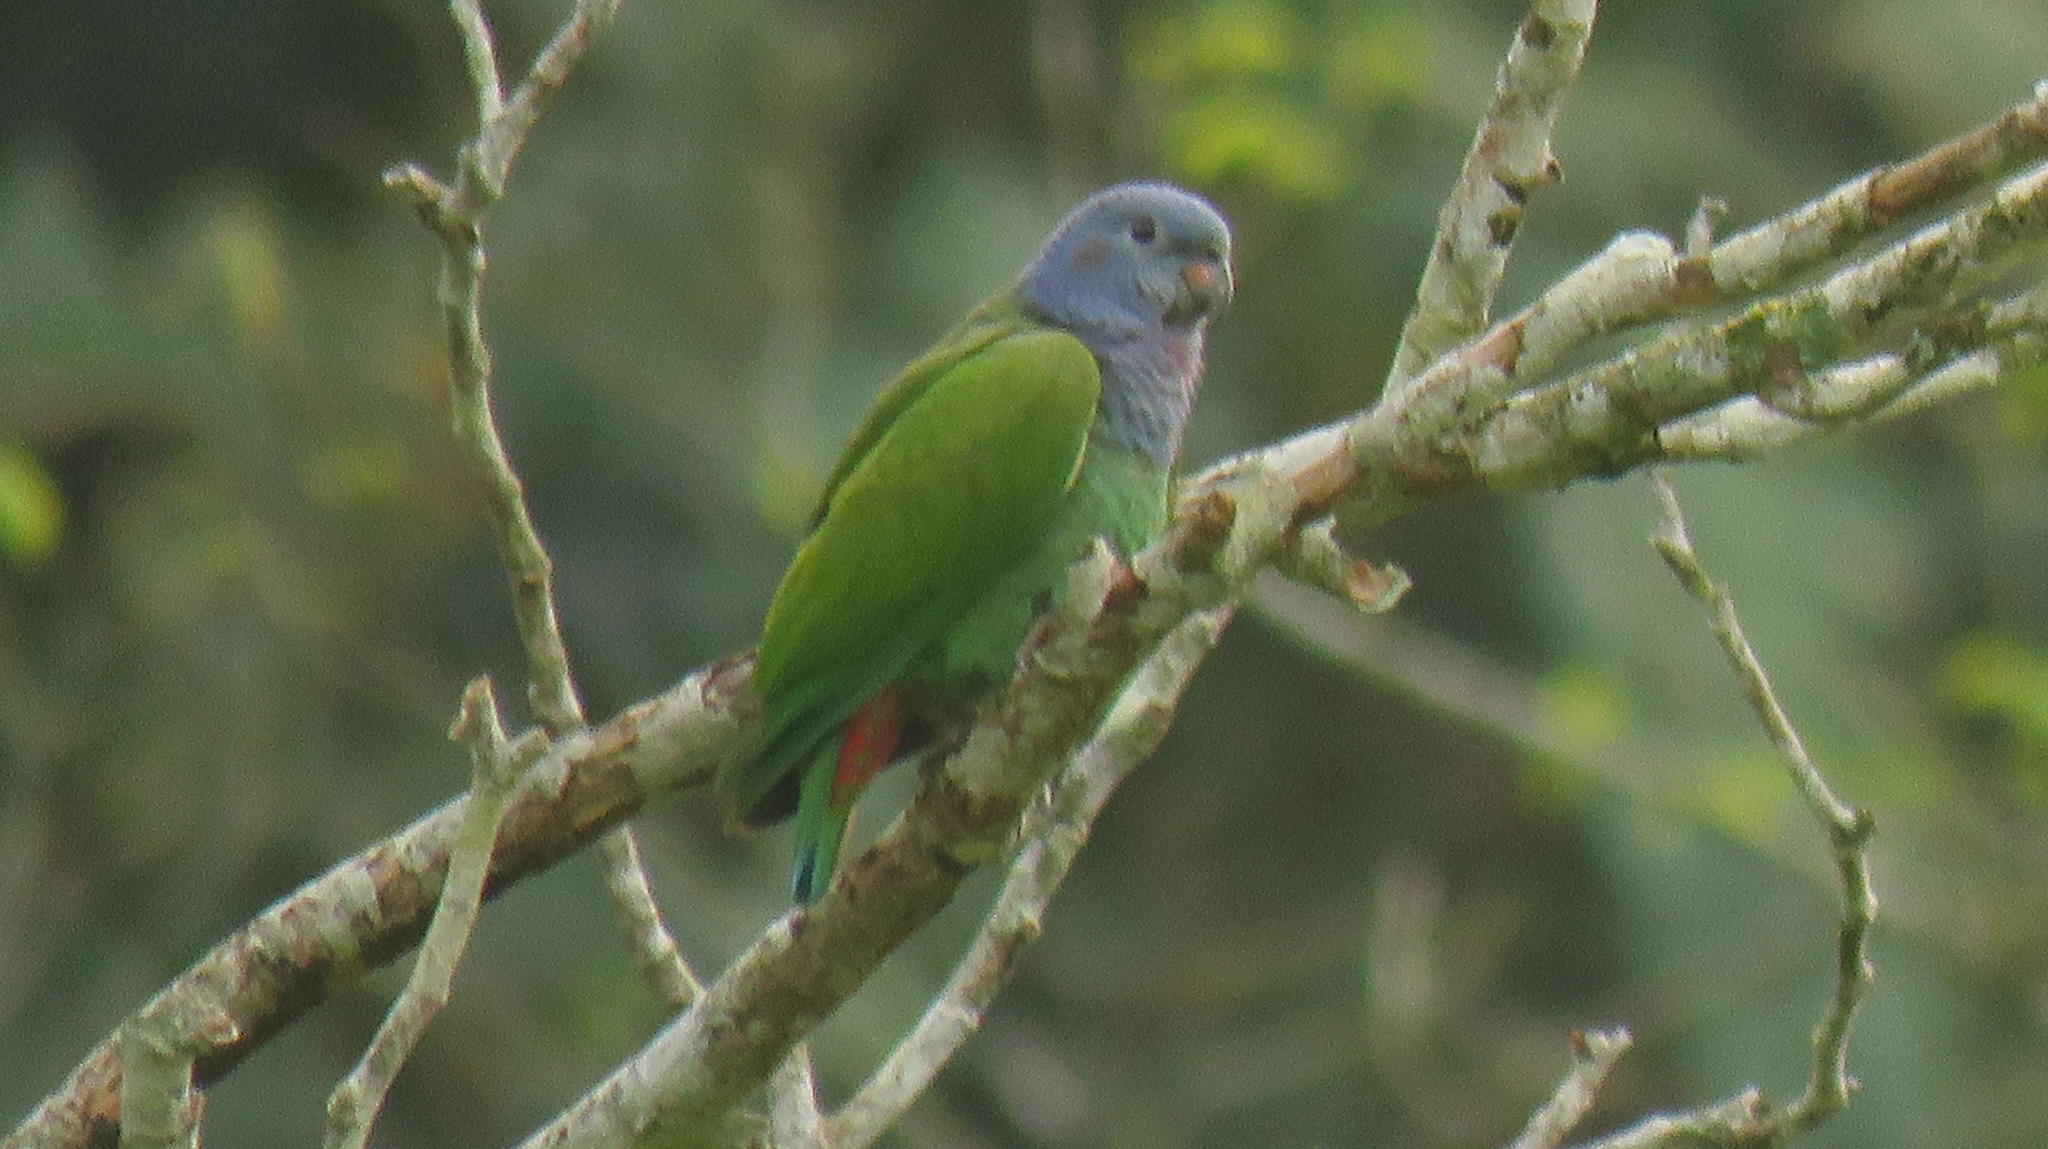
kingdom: Animalia
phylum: Chordata
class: Aves
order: Psittaciformes
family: Psittacidae
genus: Pionus
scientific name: Pionus menstruus
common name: Blue-headed parrot
